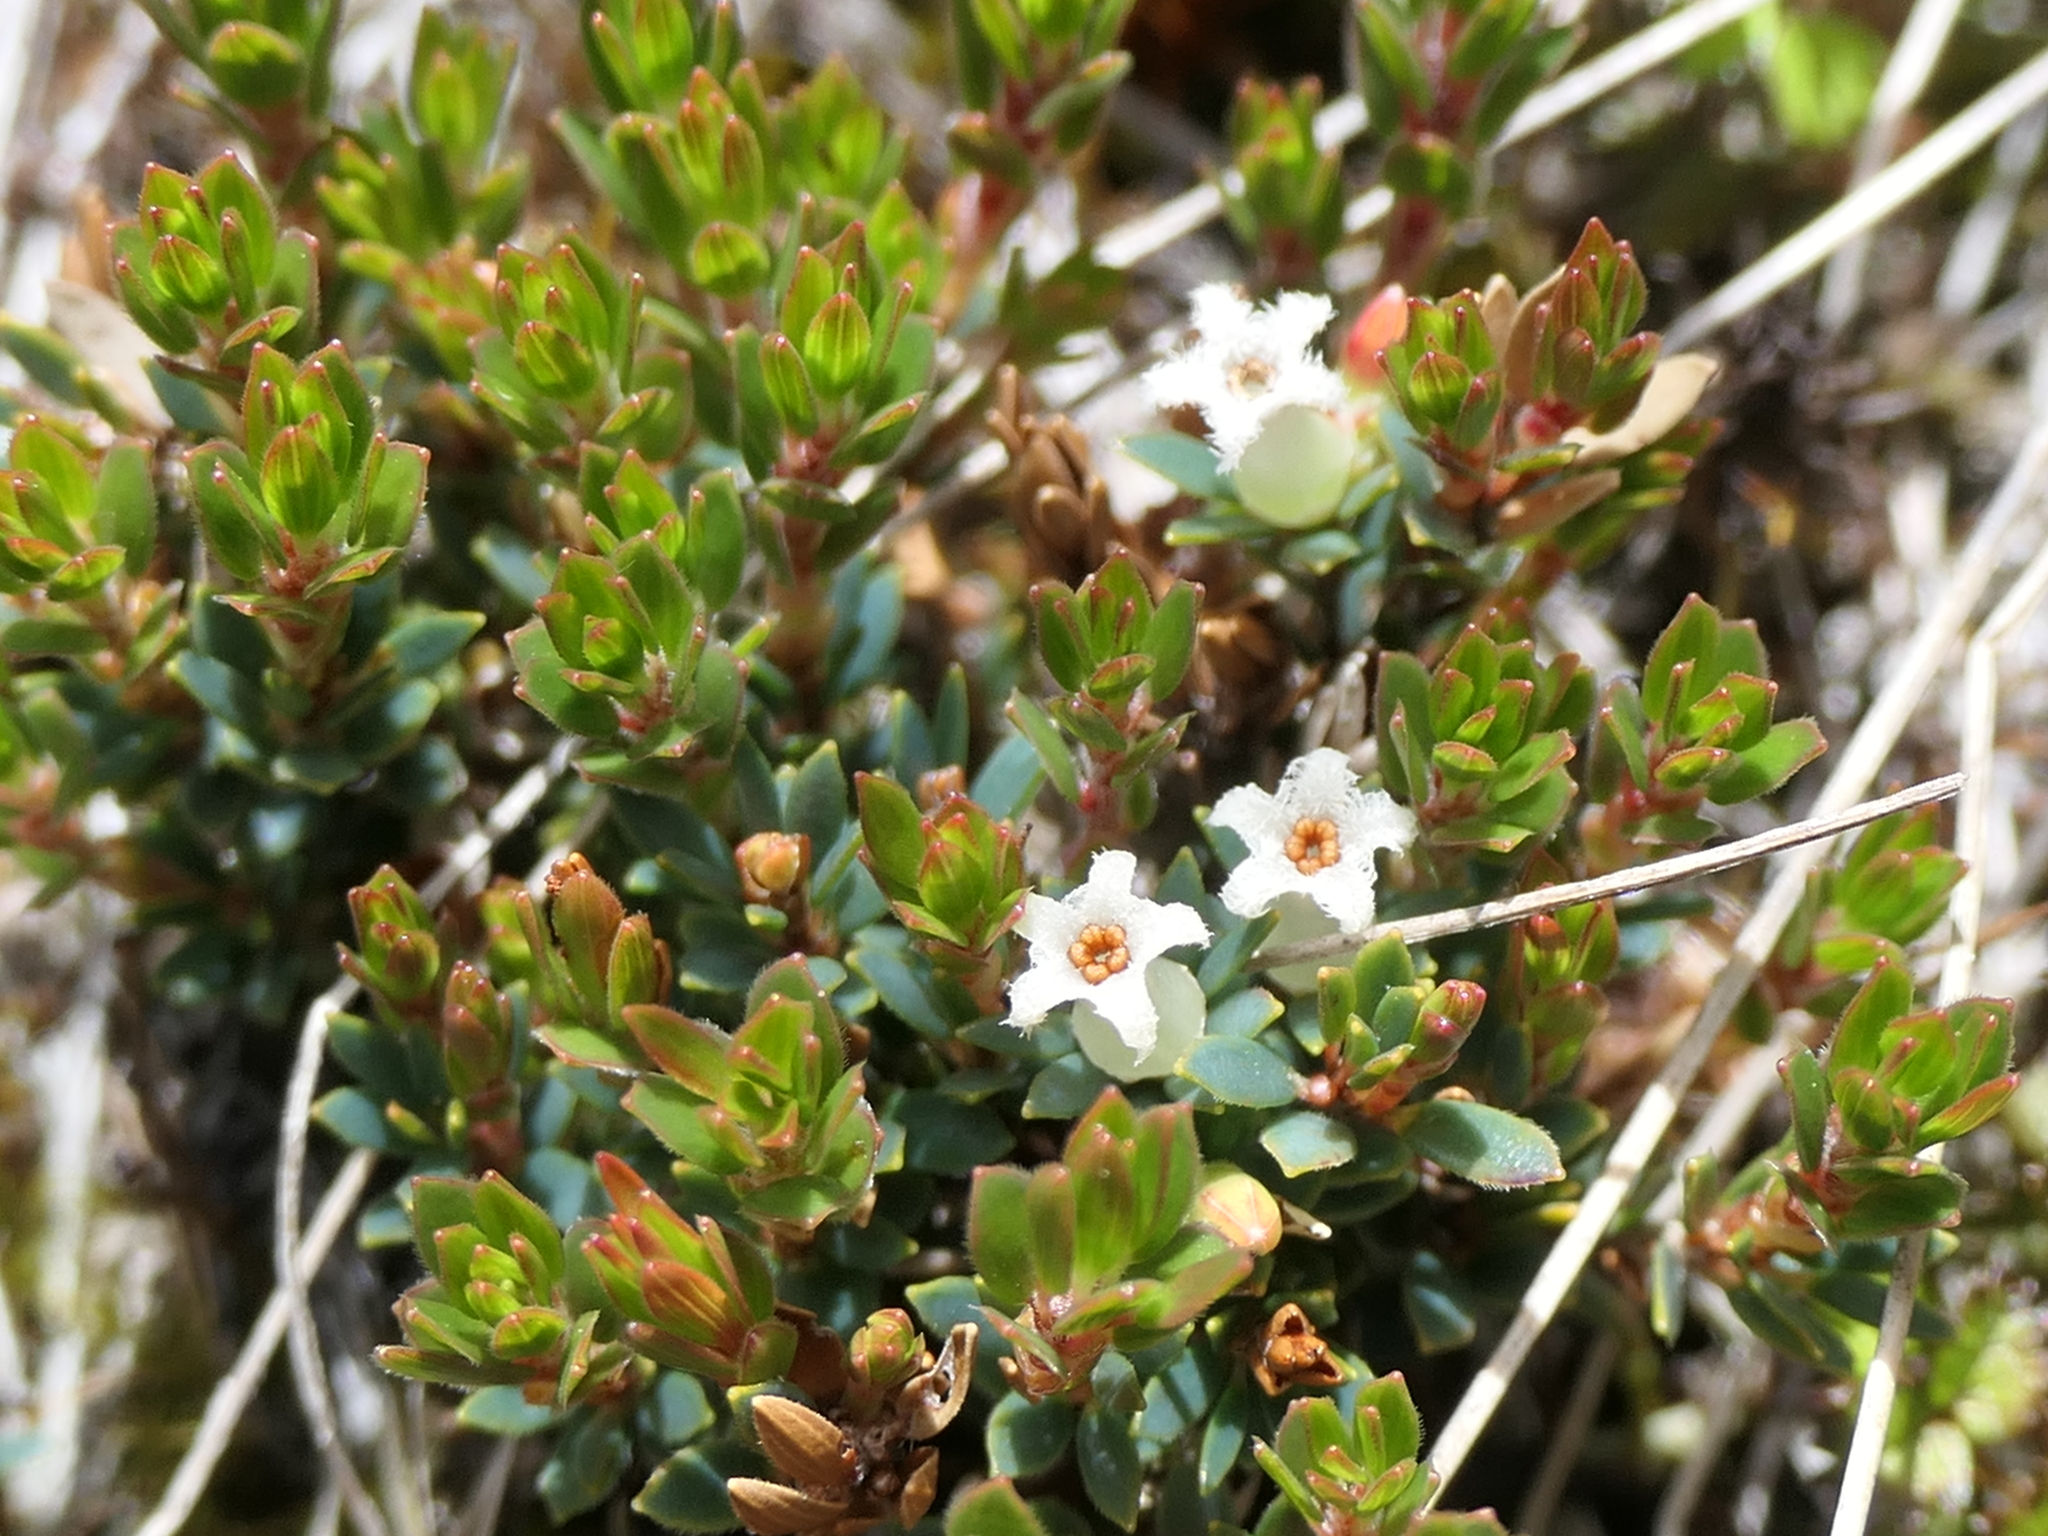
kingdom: Plantae
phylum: Tracheophyta
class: Magnoliopsida
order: Ericales
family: Ericaceae
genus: Pentachondra
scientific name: Pentachondra pumila
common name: Carpet-heath
